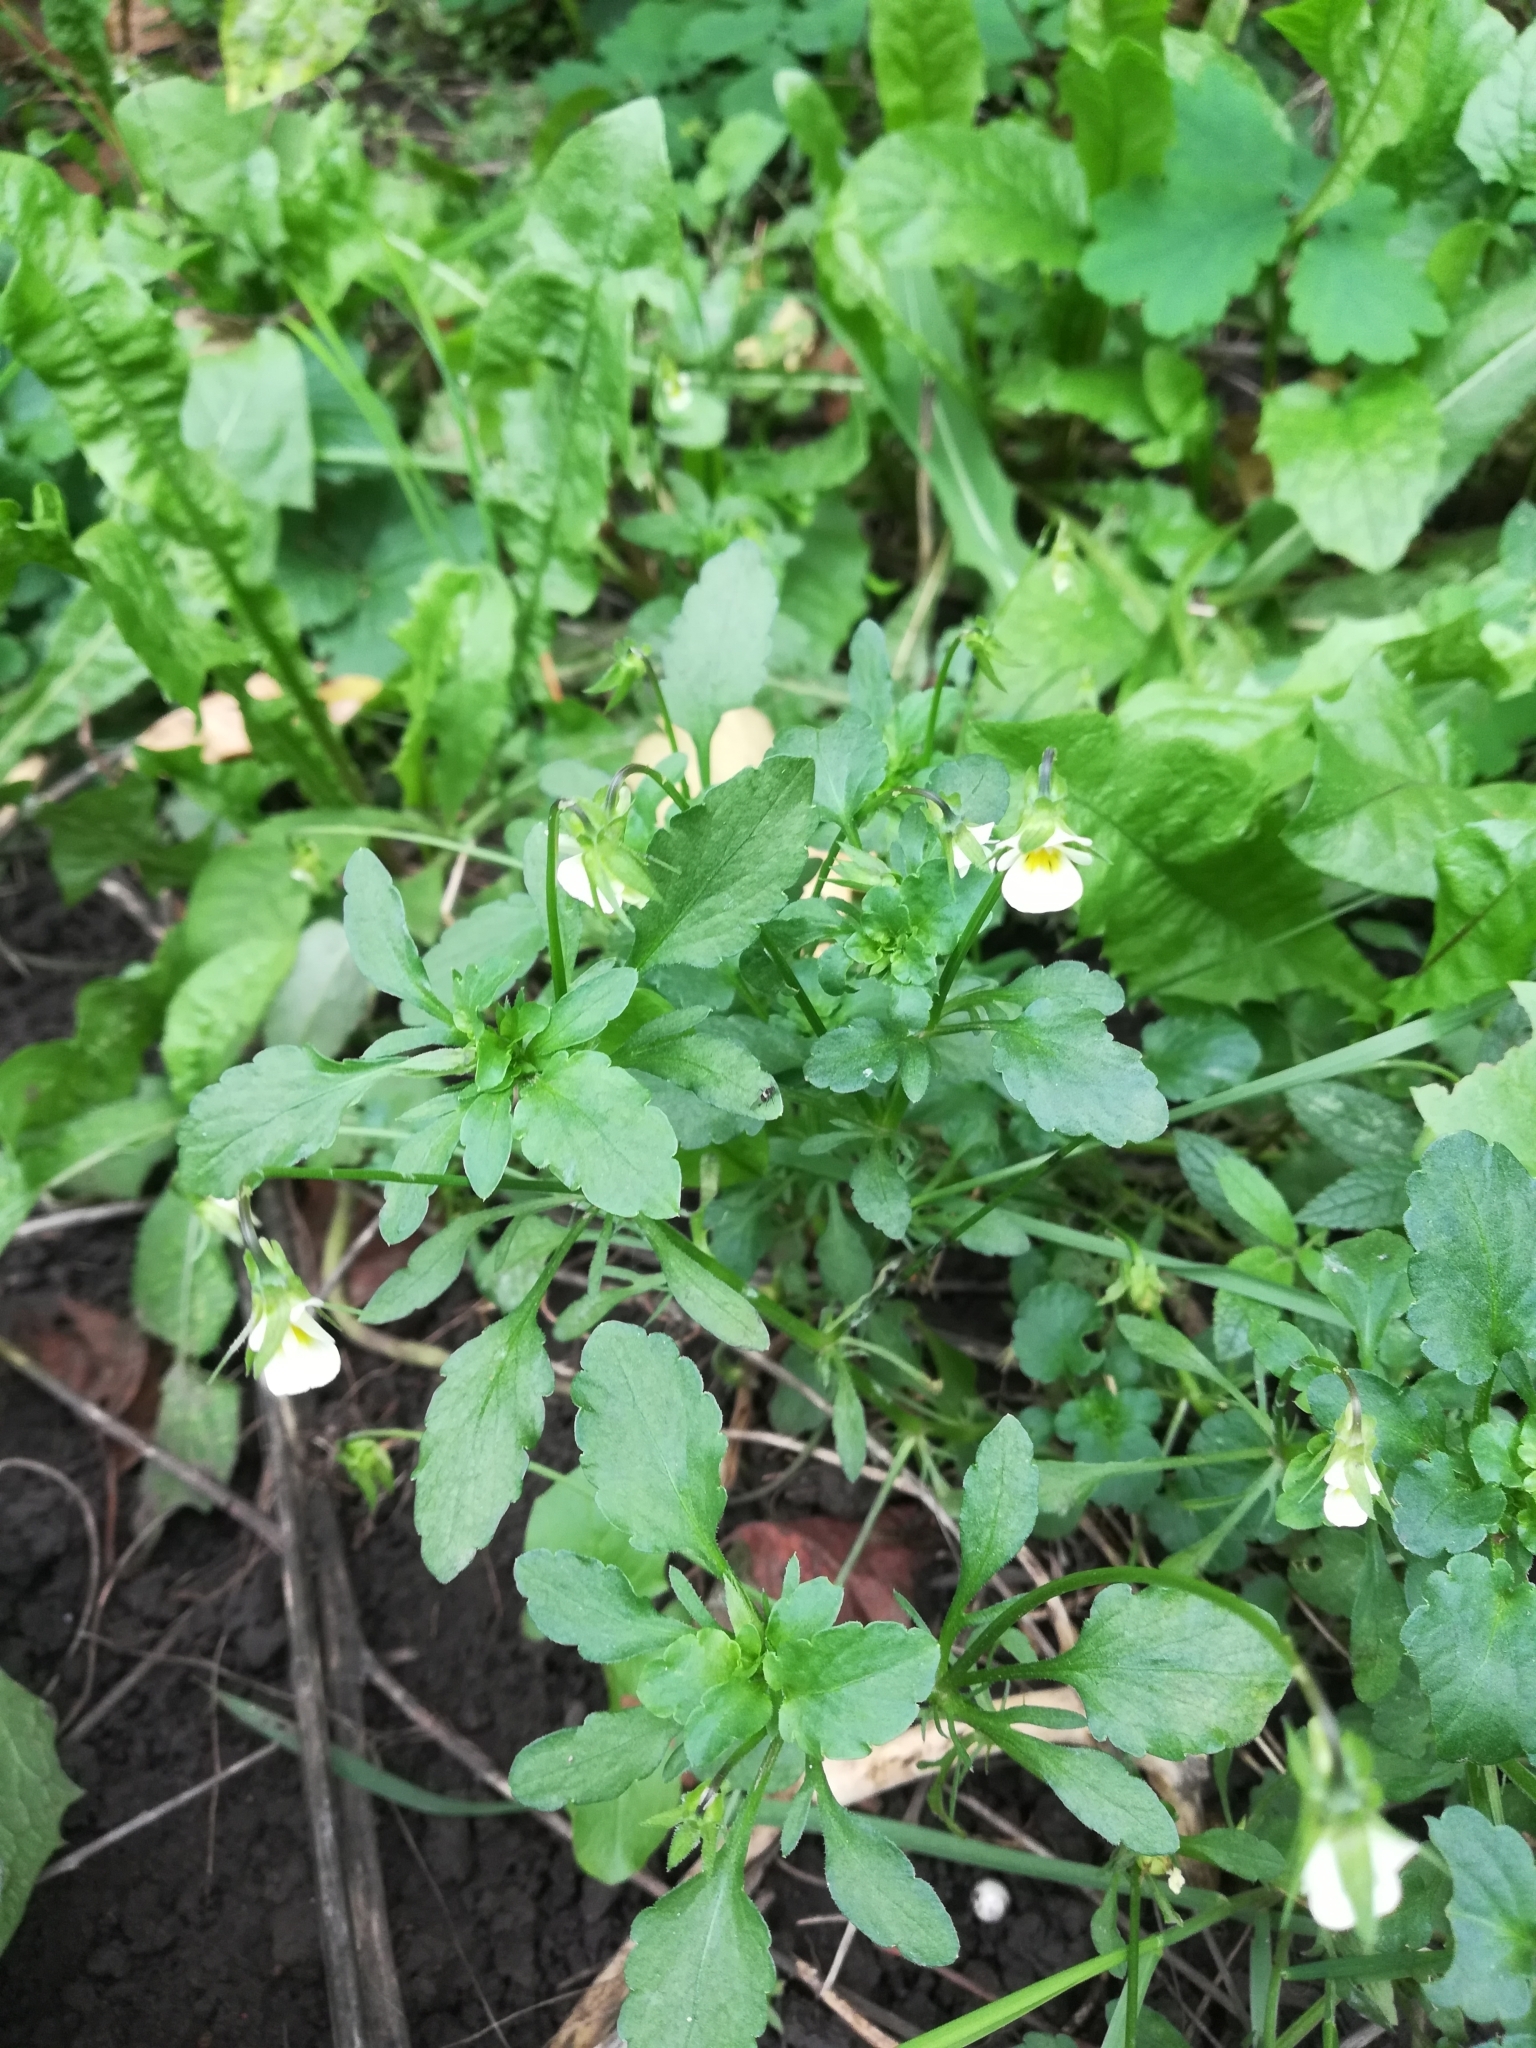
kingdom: Plantae
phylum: Tracheophyta
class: Magnoliopsida
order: Malpighiales
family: Violaceae
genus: Viola
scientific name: Viola arvensis
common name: Field pansy
